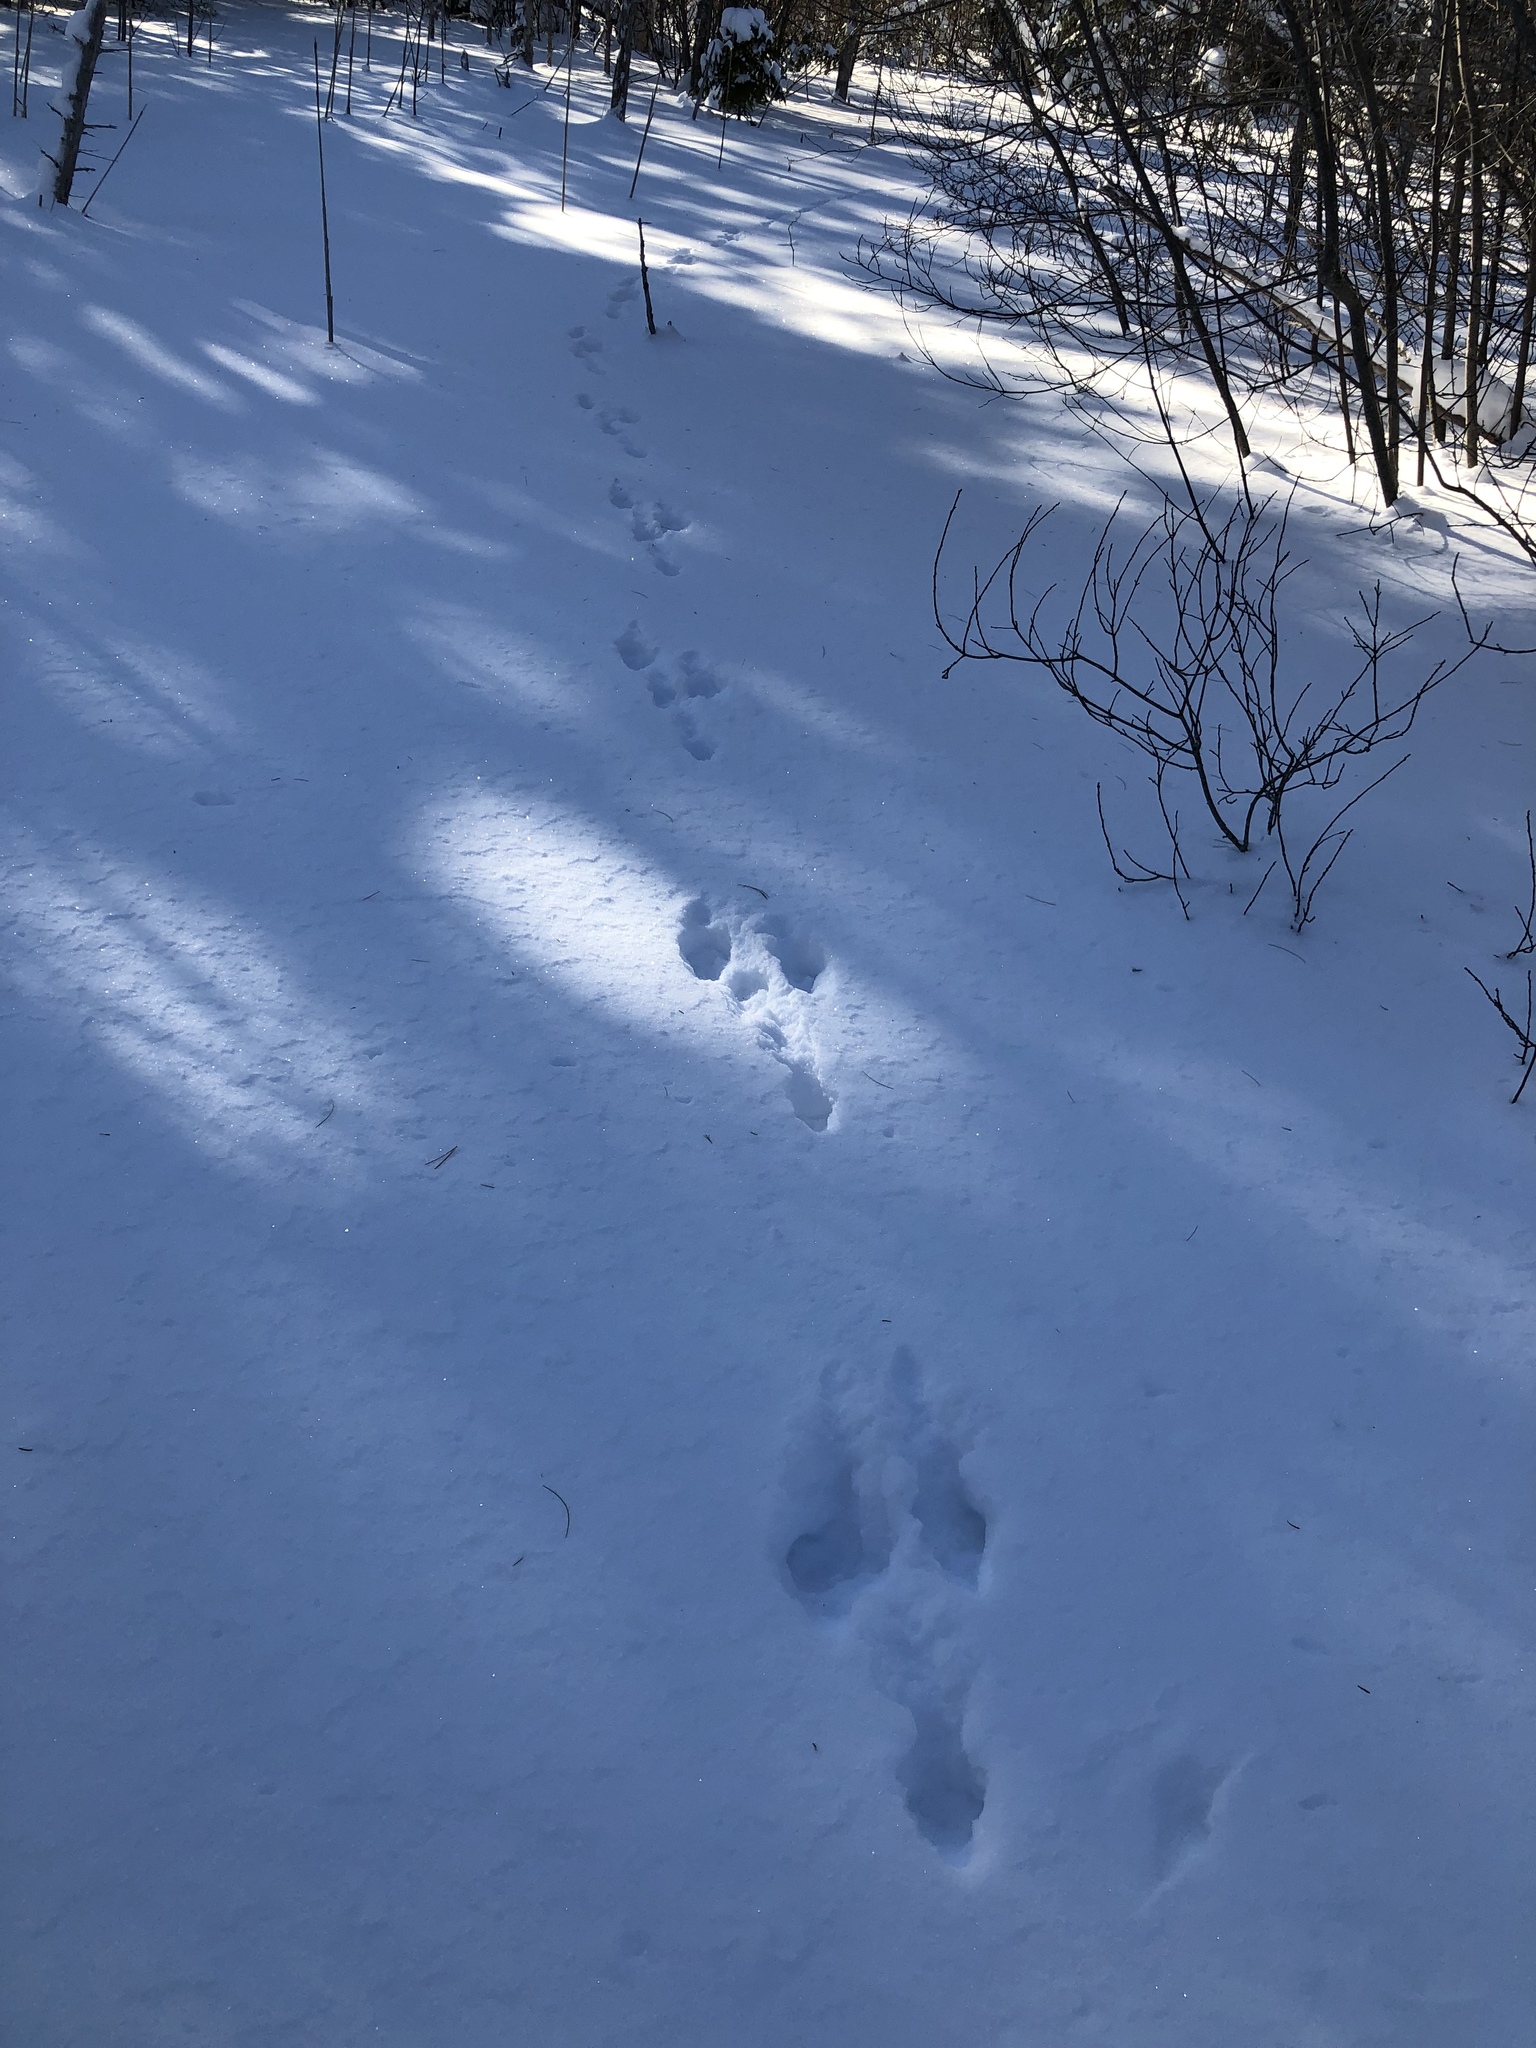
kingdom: Animalia
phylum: Chordata
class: Mammalia
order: Lagomorpha
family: Leporidae
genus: Lepus
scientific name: Lepus americanus
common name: Snowshoe hare
